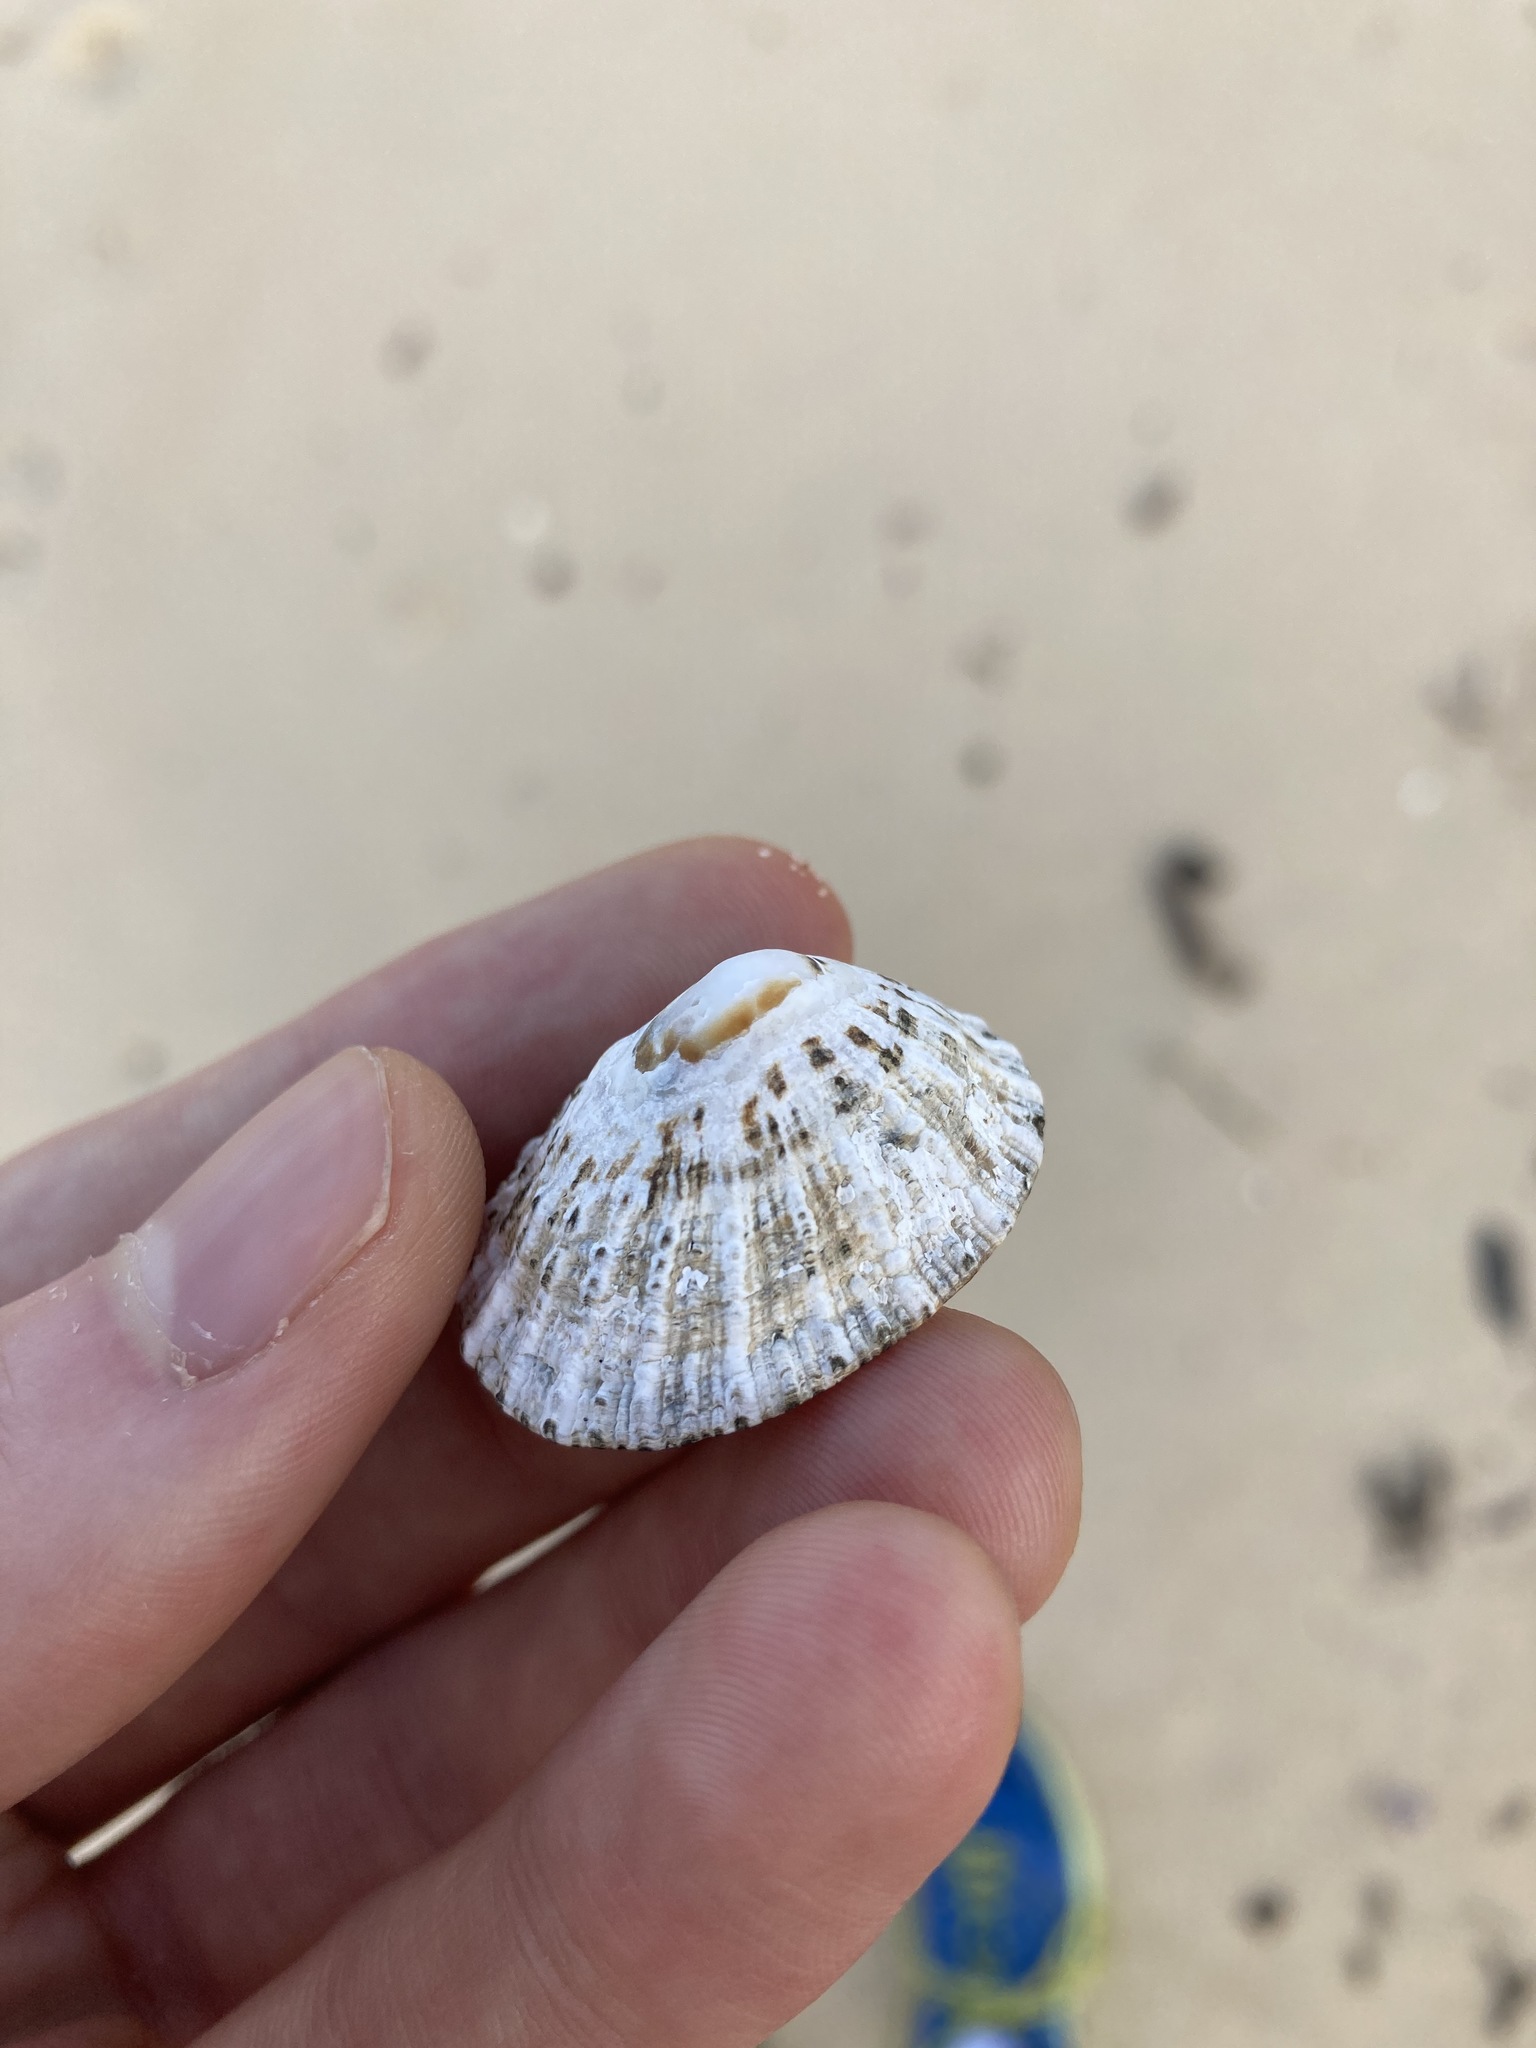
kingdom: Animalia
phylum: Mollusca
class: Gastropoda
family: Patellidae
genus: Scutellastra
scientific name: Scutellastra peronii
